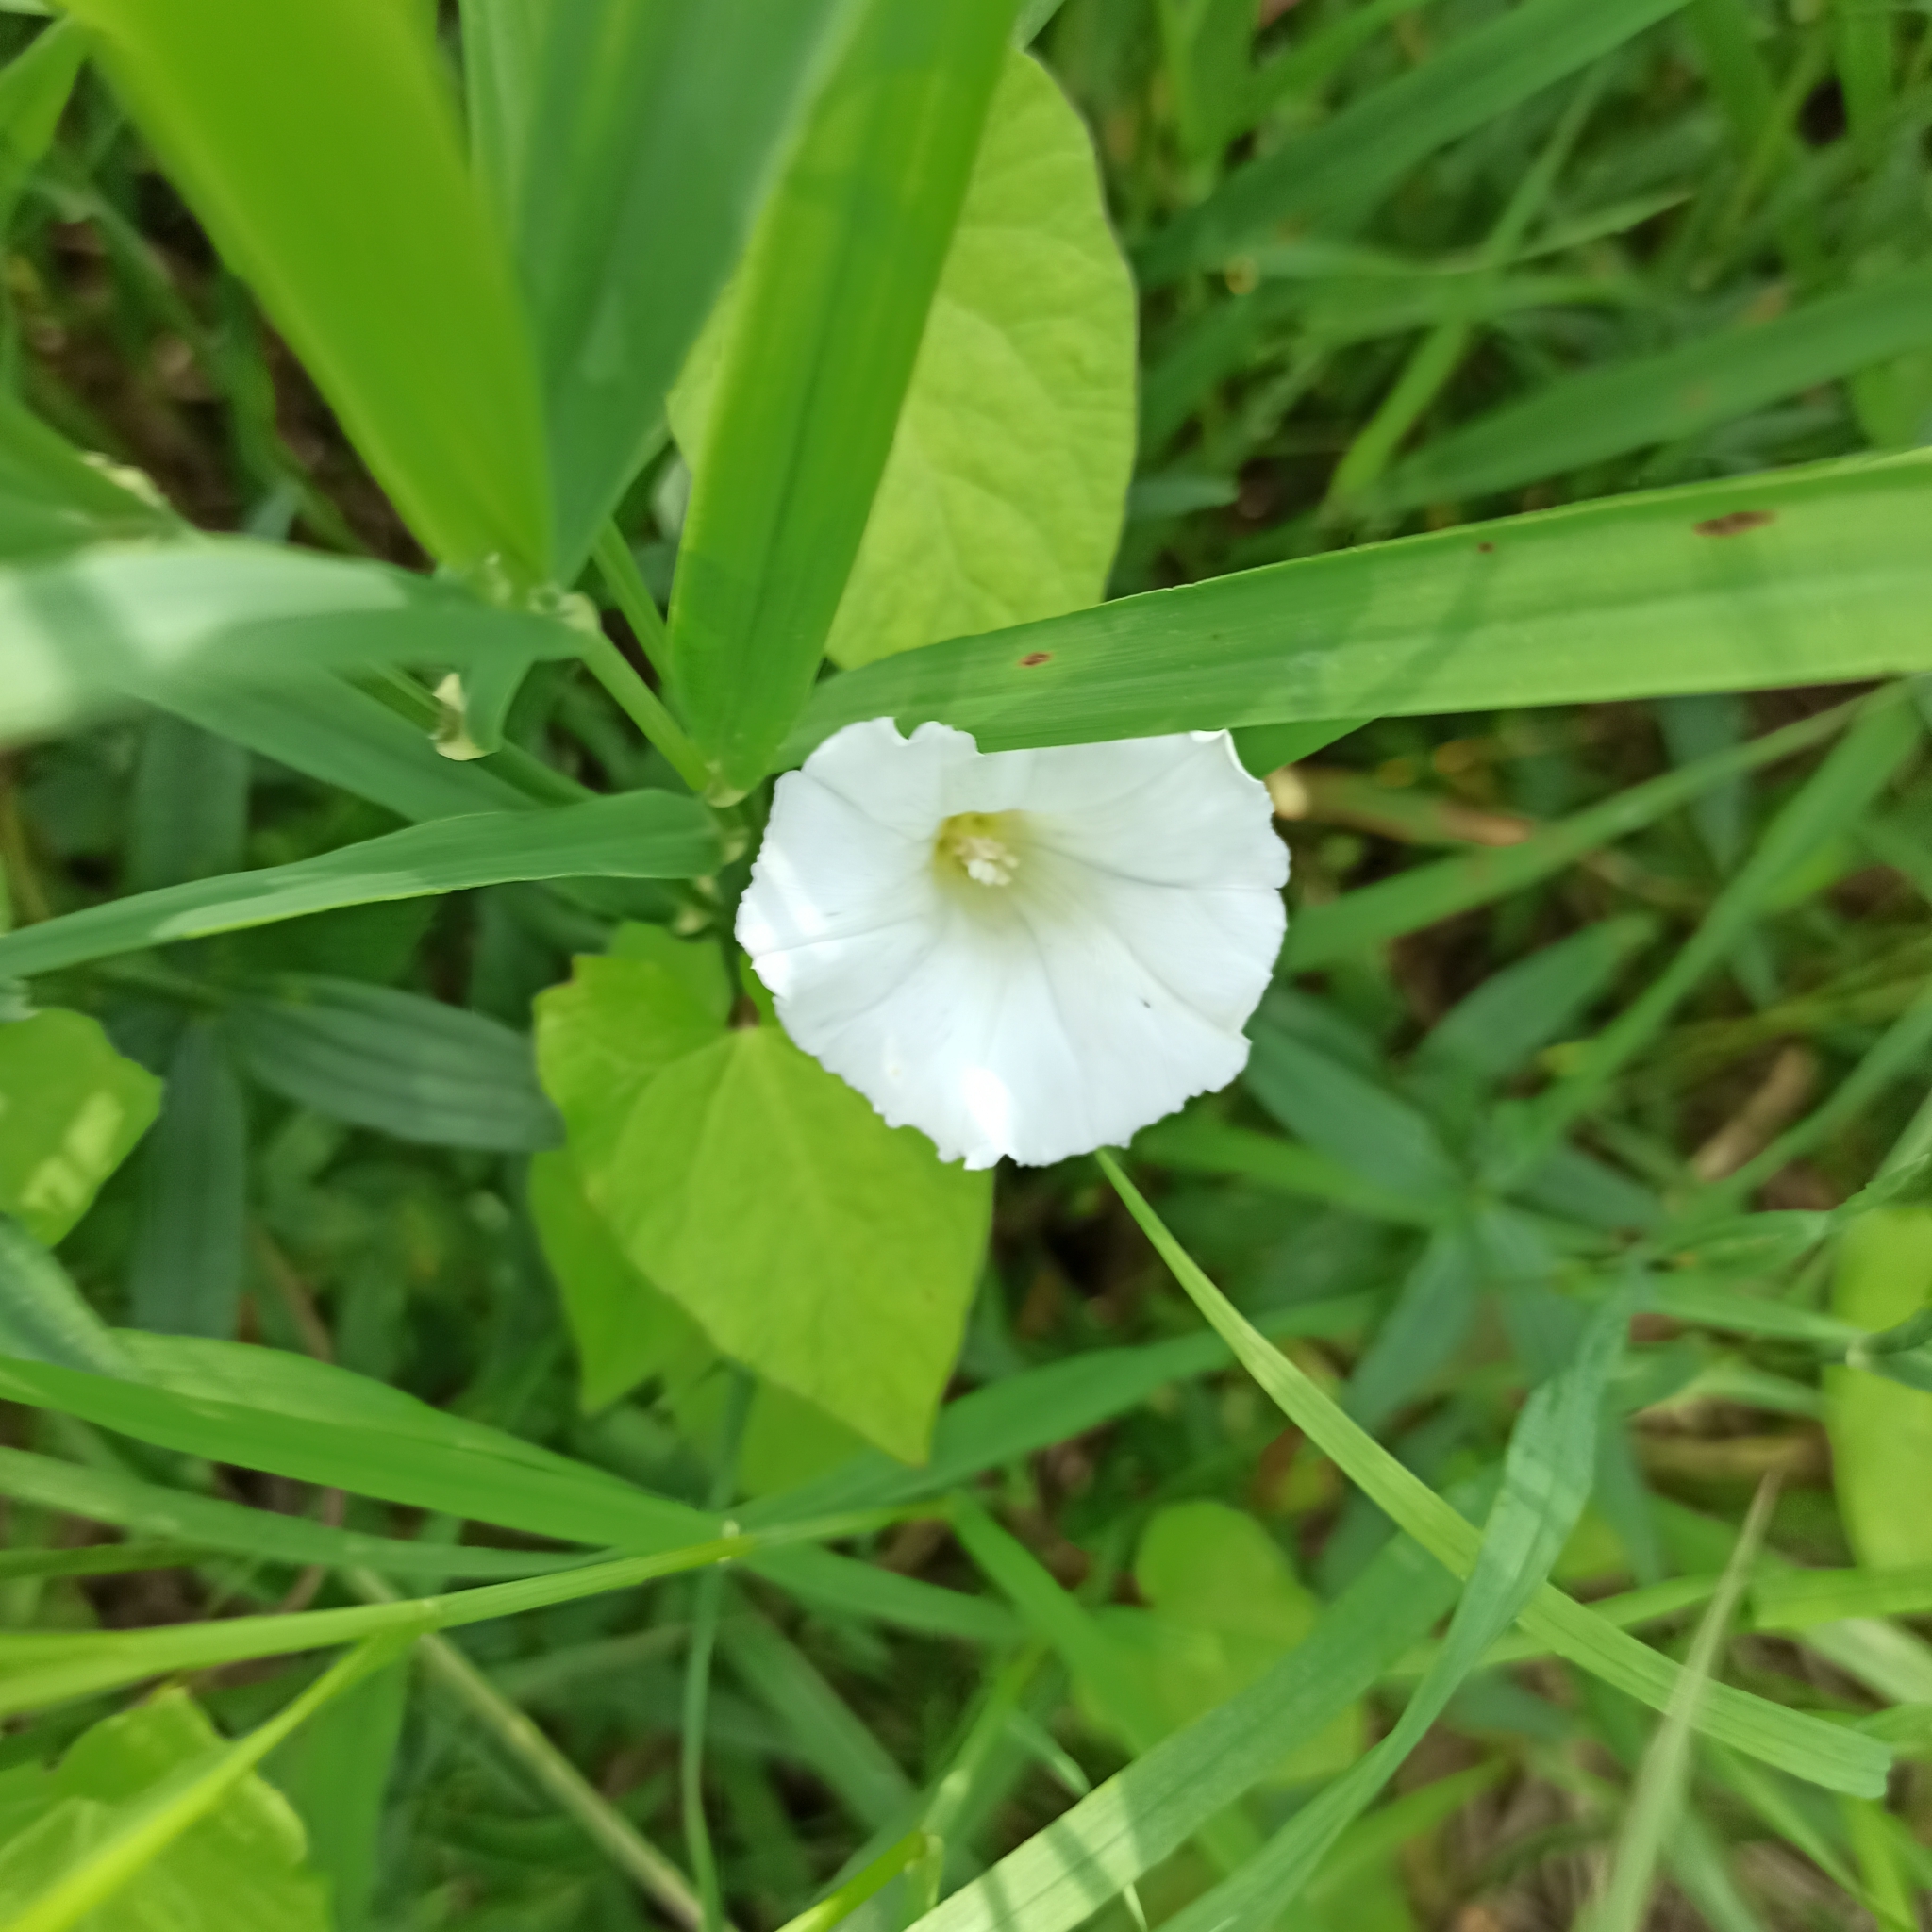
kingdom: Plantae
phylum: Tracheophyta
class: Magnoliopsida
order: Solanales
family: Convolvulaceae
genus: Calystegia
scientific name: Calystegia sepium
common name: Hedge bindweed
